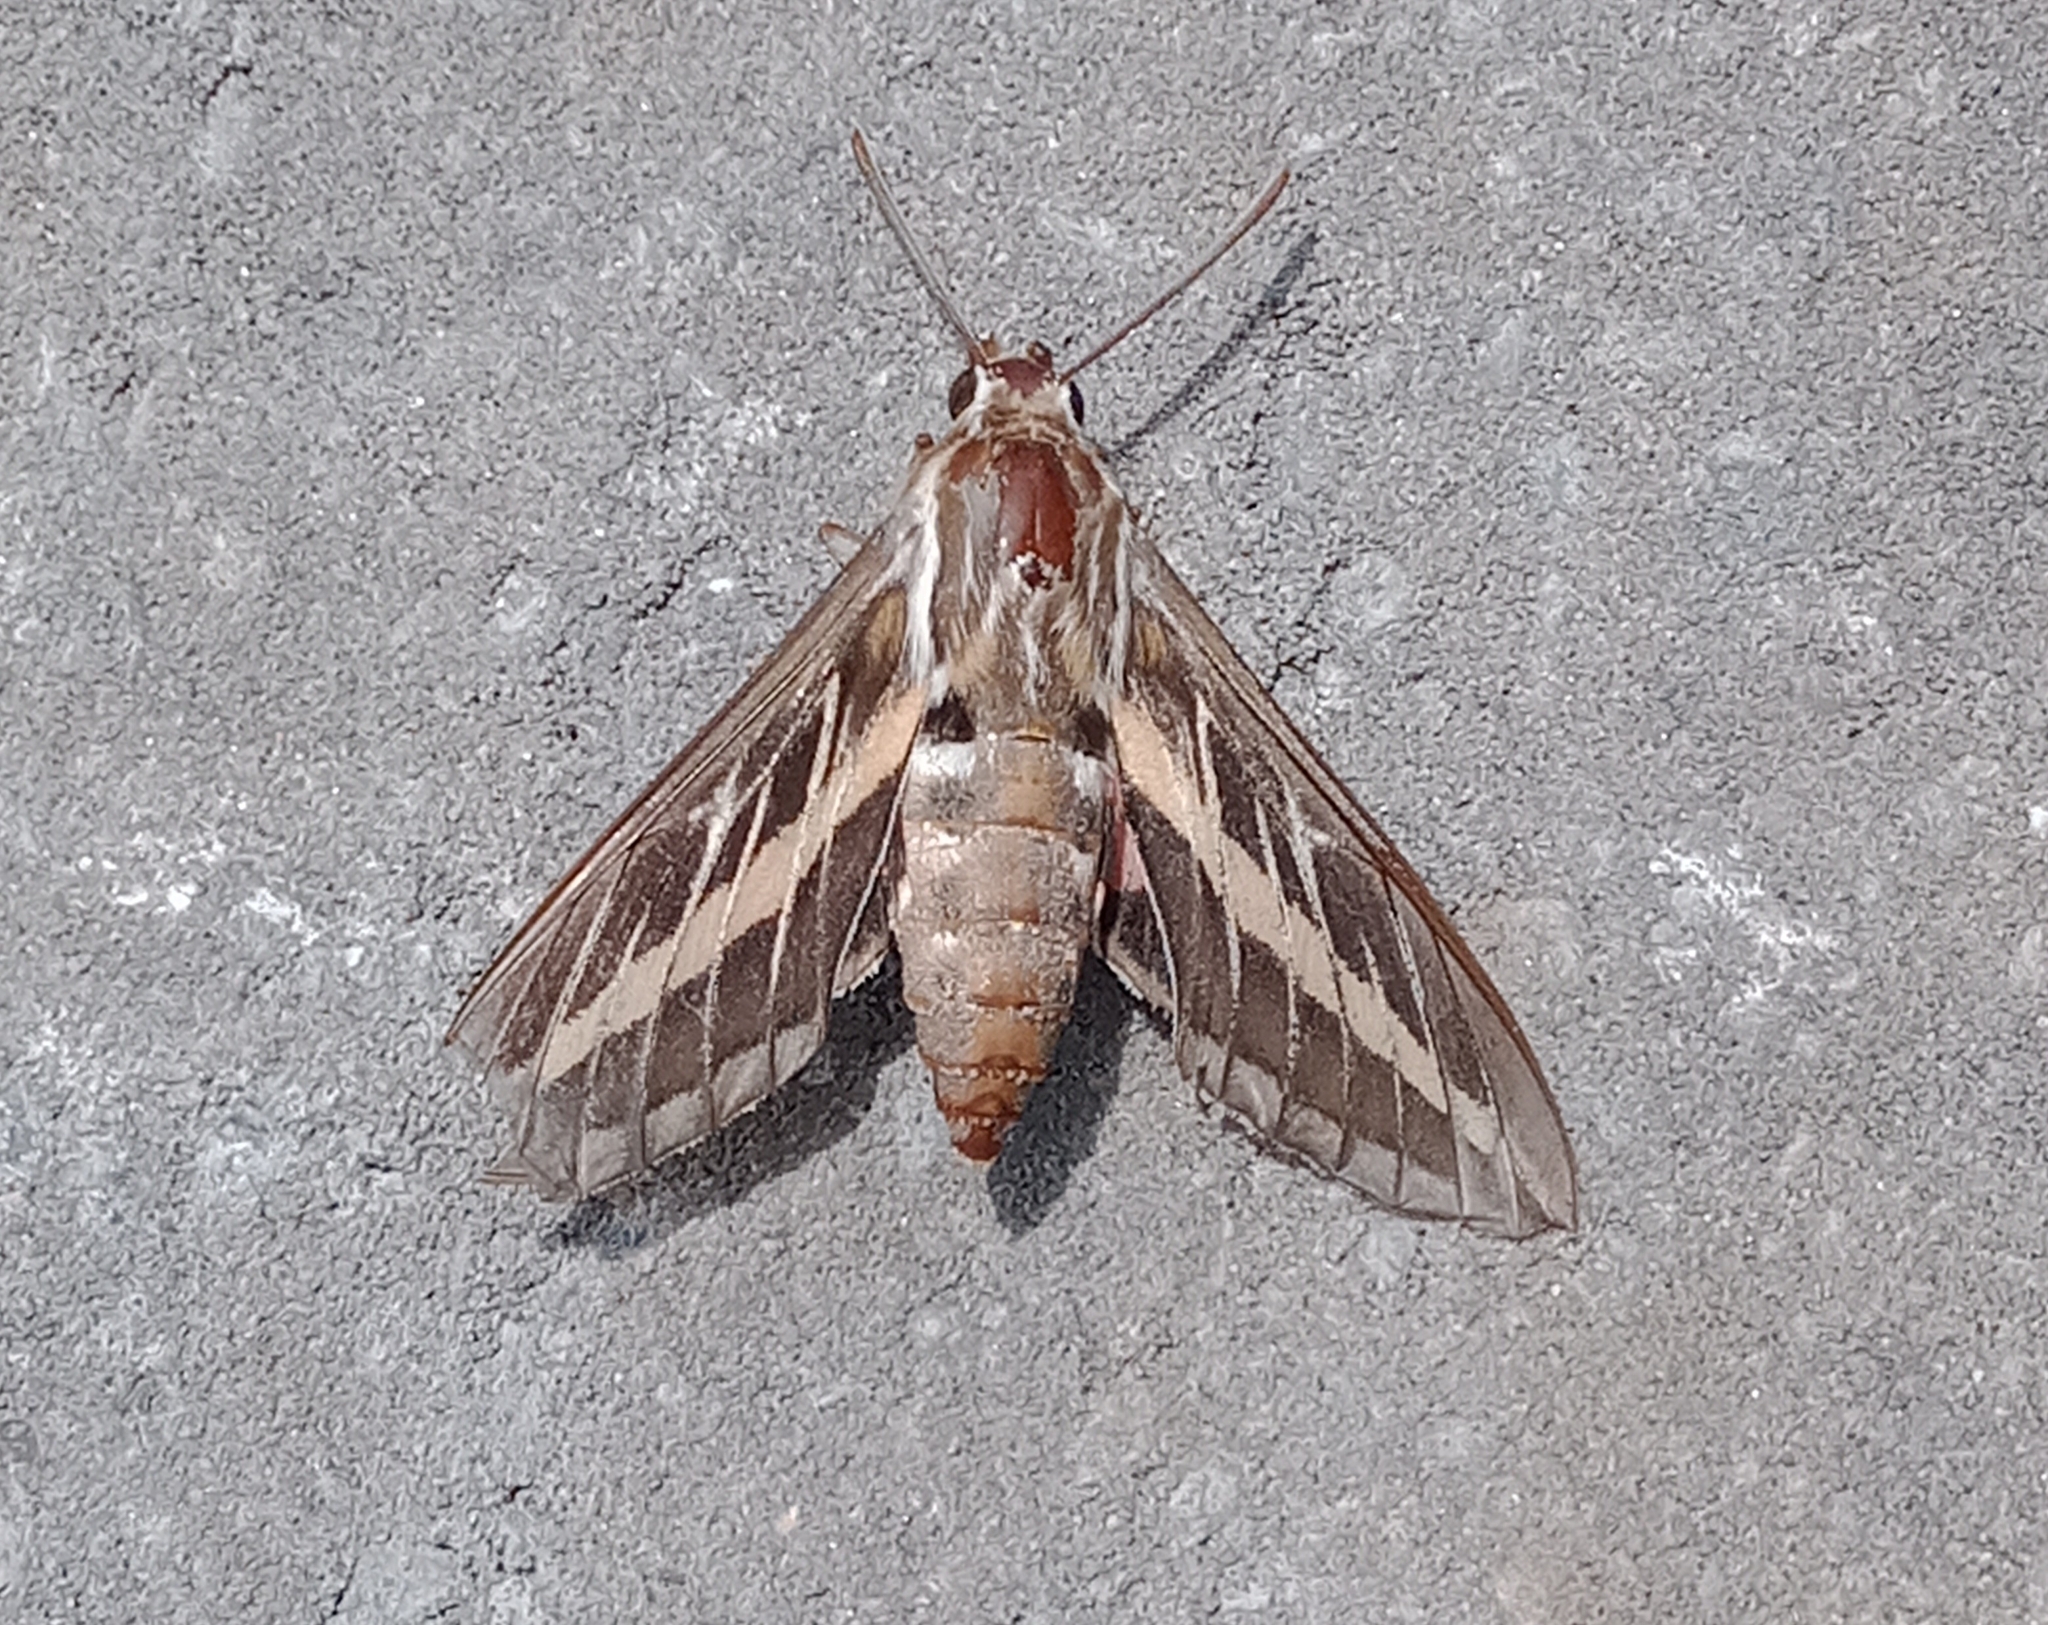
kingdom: Animalia
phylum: Arthropoda
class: Insecta
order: Lepidoptera
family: Sphingidae
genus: Hyles
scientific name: Hyles lineata
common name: White-lined sphinx
